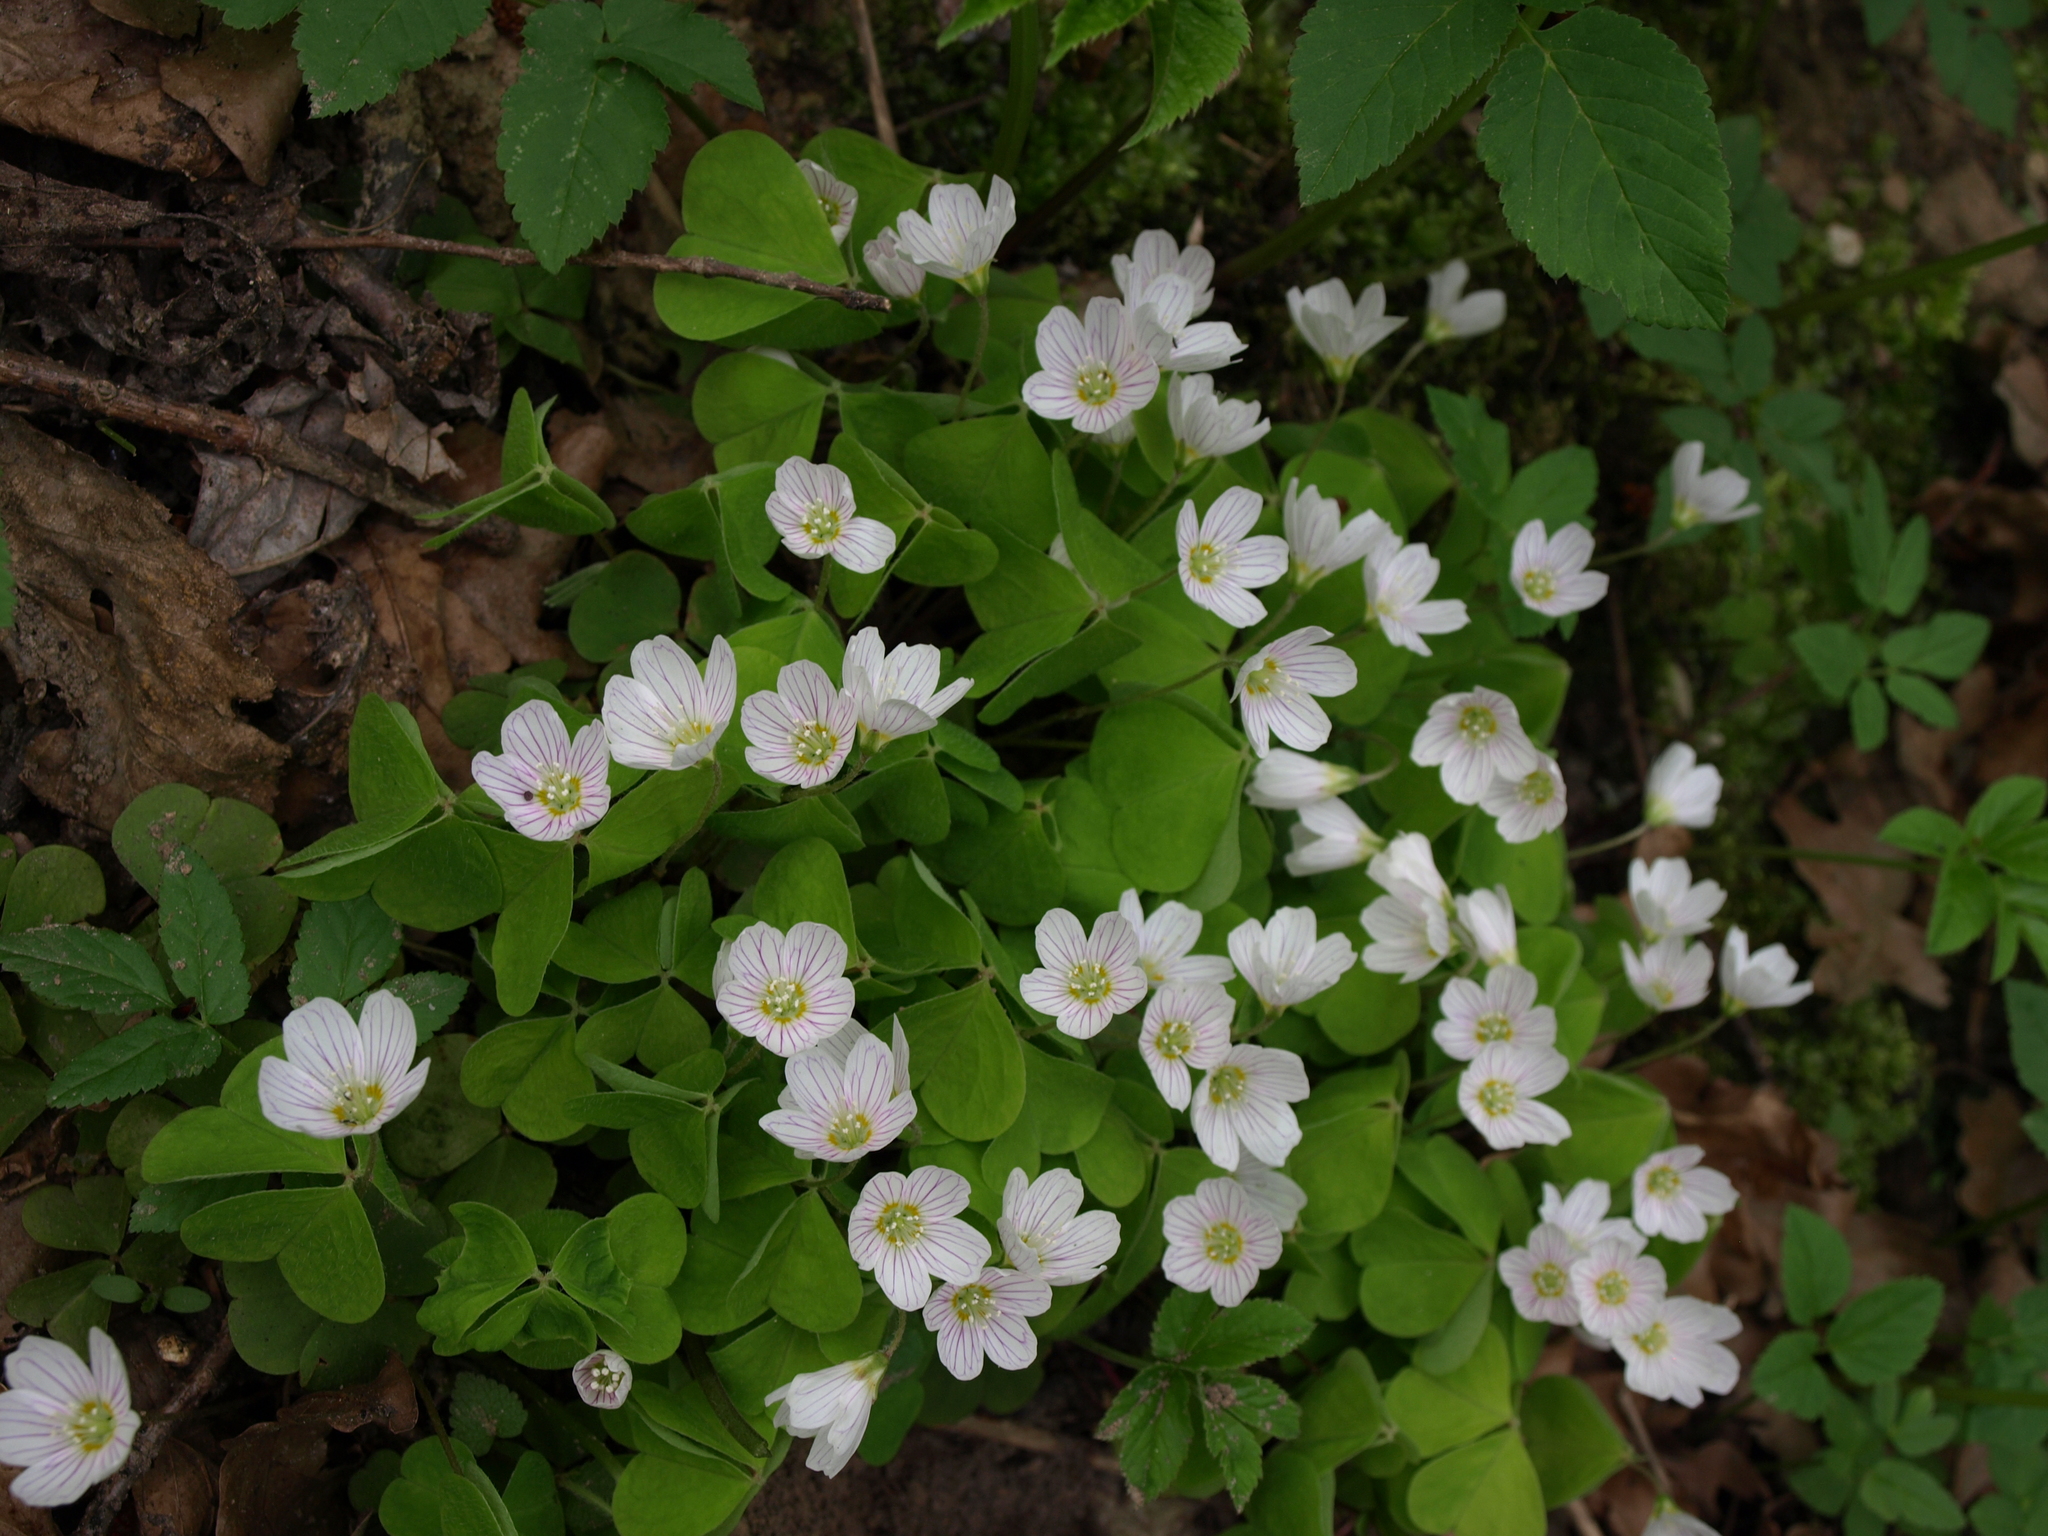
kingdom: Plantae
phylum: Tracheophyta
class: Magnoliopsida
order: Oxalidales
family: Oxalidaceae
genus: Oxalis
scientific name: Oxalis acetosella
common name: Wood-sorrel
